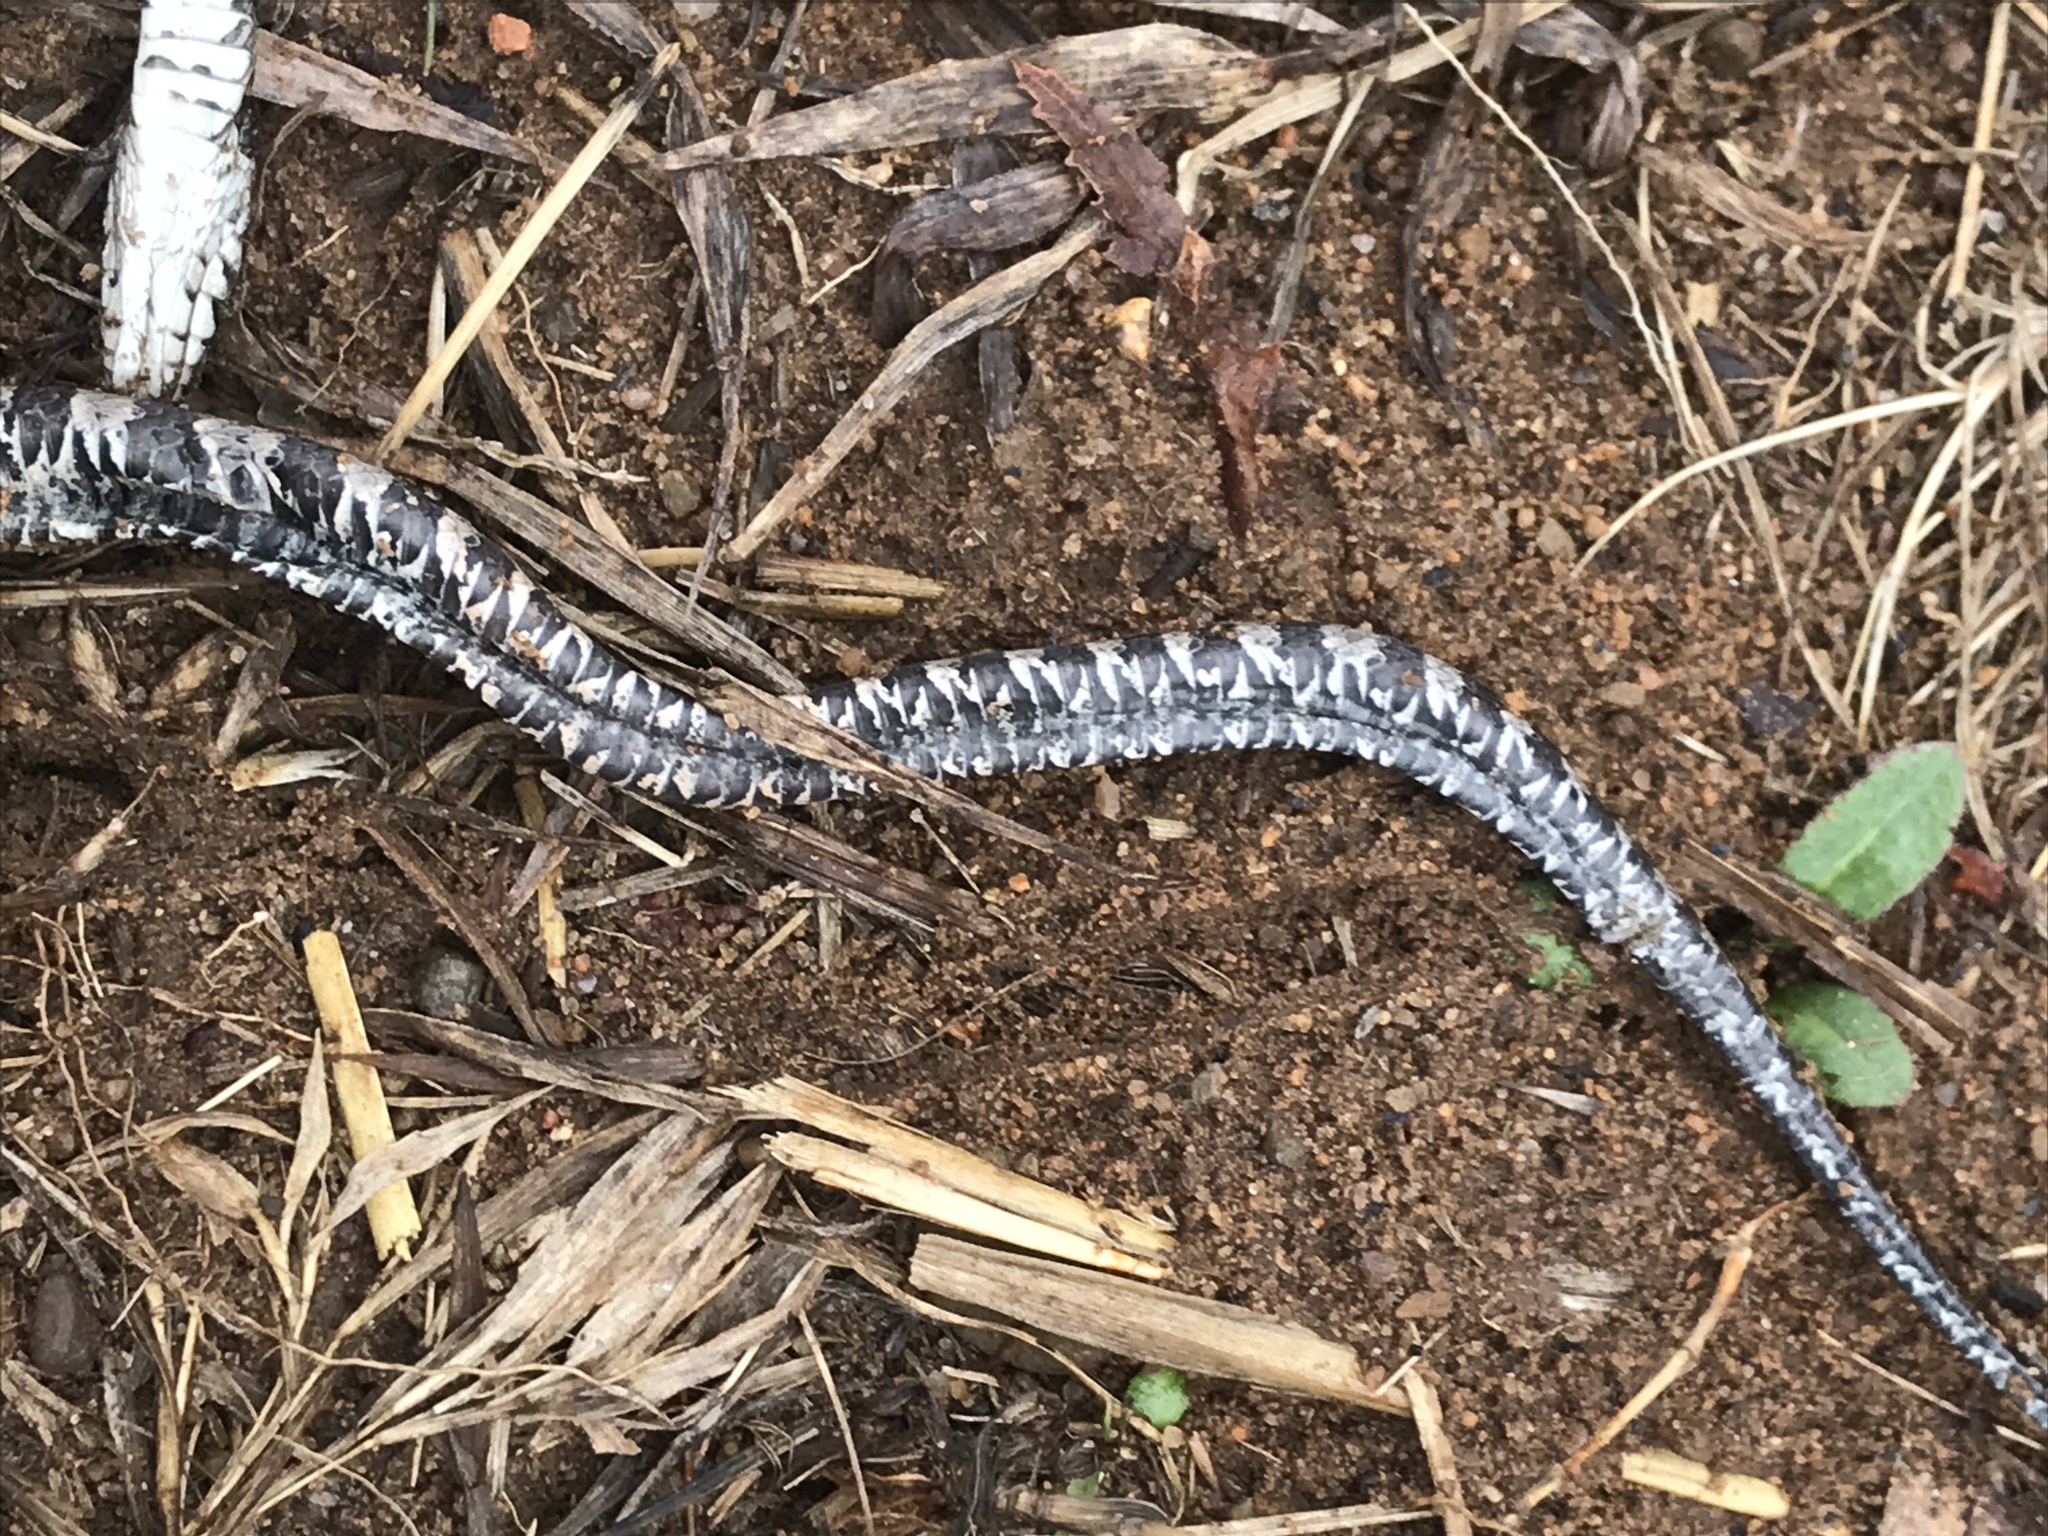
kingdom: Animalia
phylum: Chordata
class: Squamata
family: Colubridae
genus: Nerodia
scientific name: Nerodia sipedon
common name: Northern water snake
